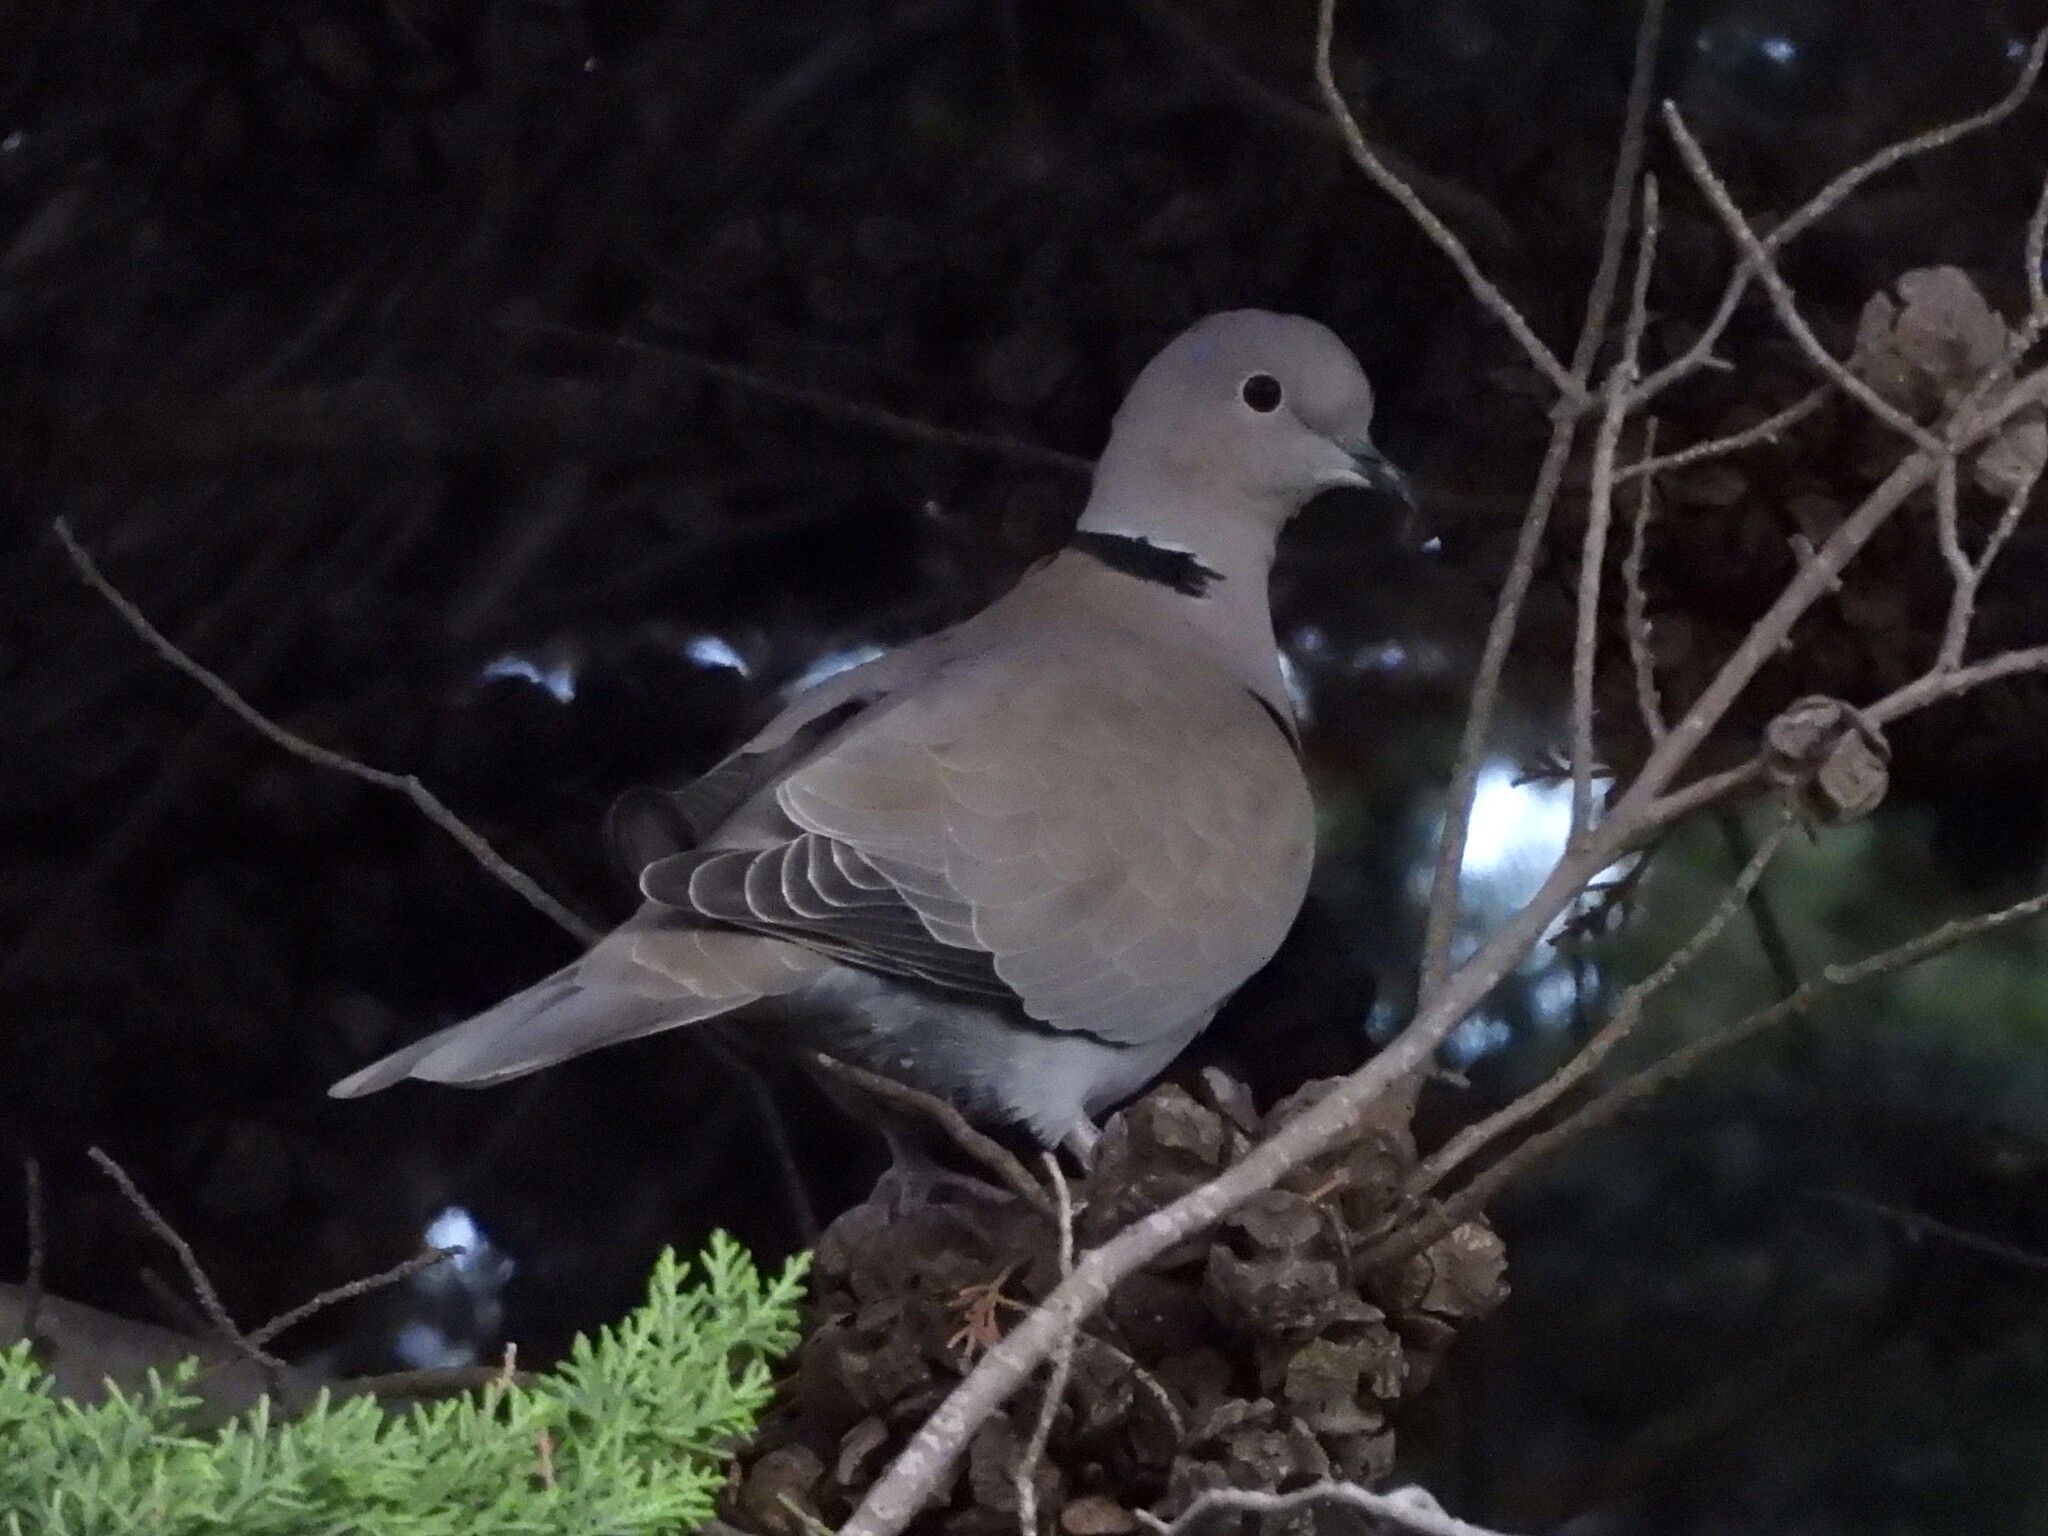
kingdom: Animalia
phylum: Chordata
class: Aves
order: Columbiformes
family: Columbidae
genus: Streptopelia
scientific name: Streptopelia decaocto
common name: Eurasian collared dove
